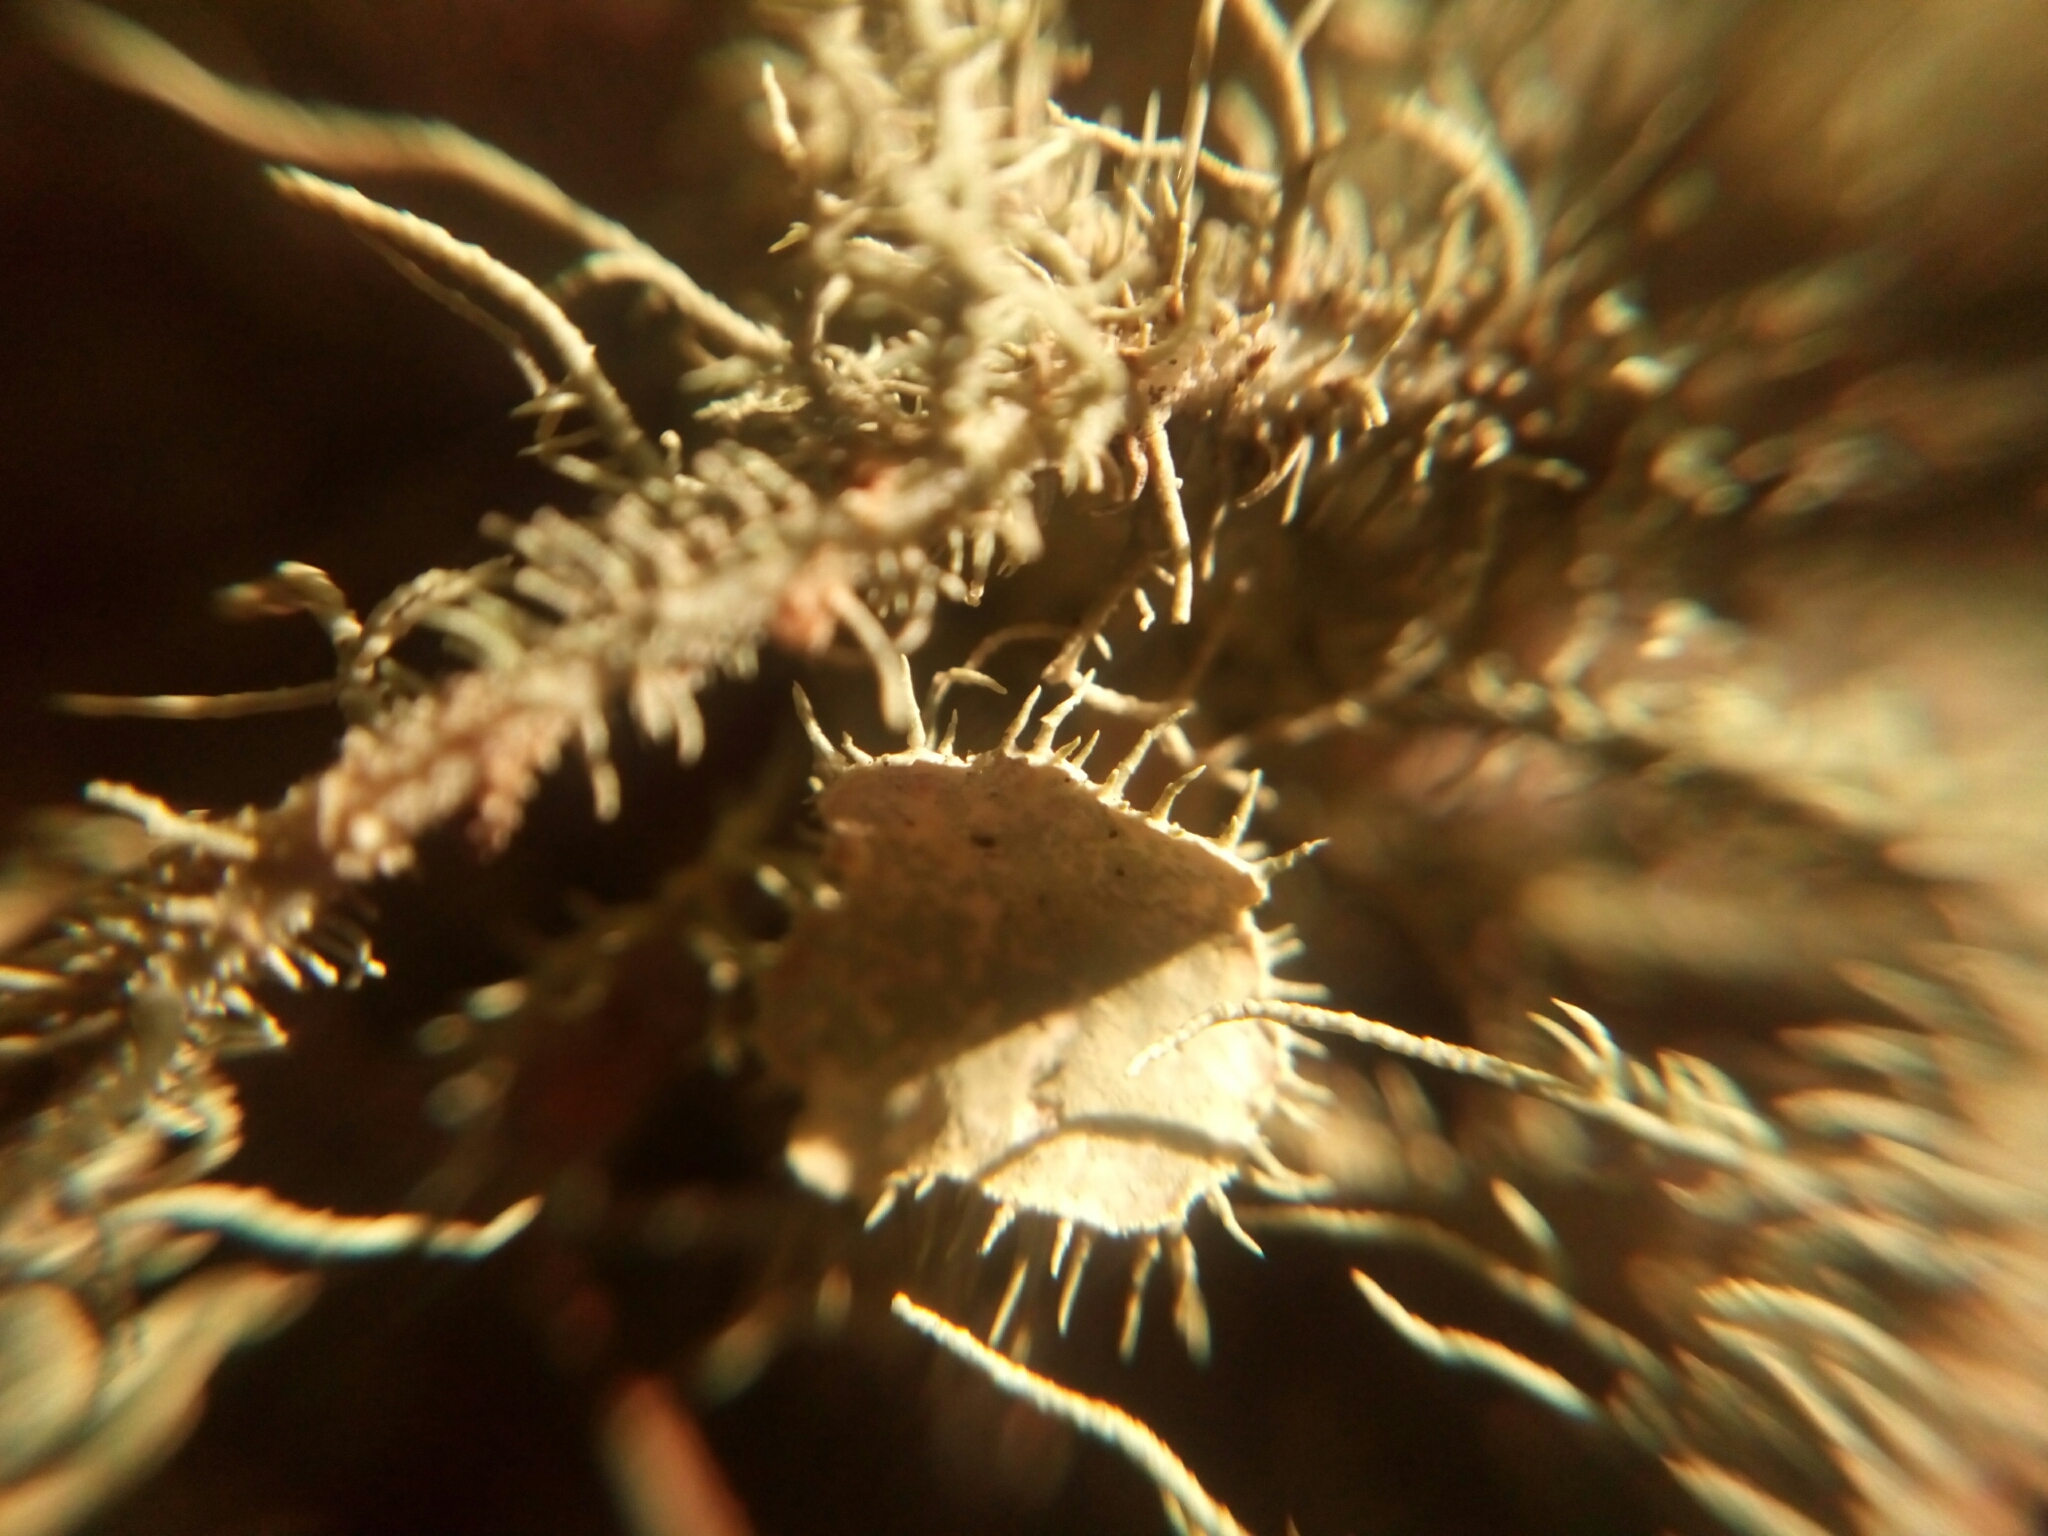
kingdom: Fungi
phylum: Ascomycota
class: Lecanoromycetes
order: Lecanorales
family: Parmeliaceae
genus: Usnea
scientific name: Usnea strigosa
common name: Bushy beard lichen
